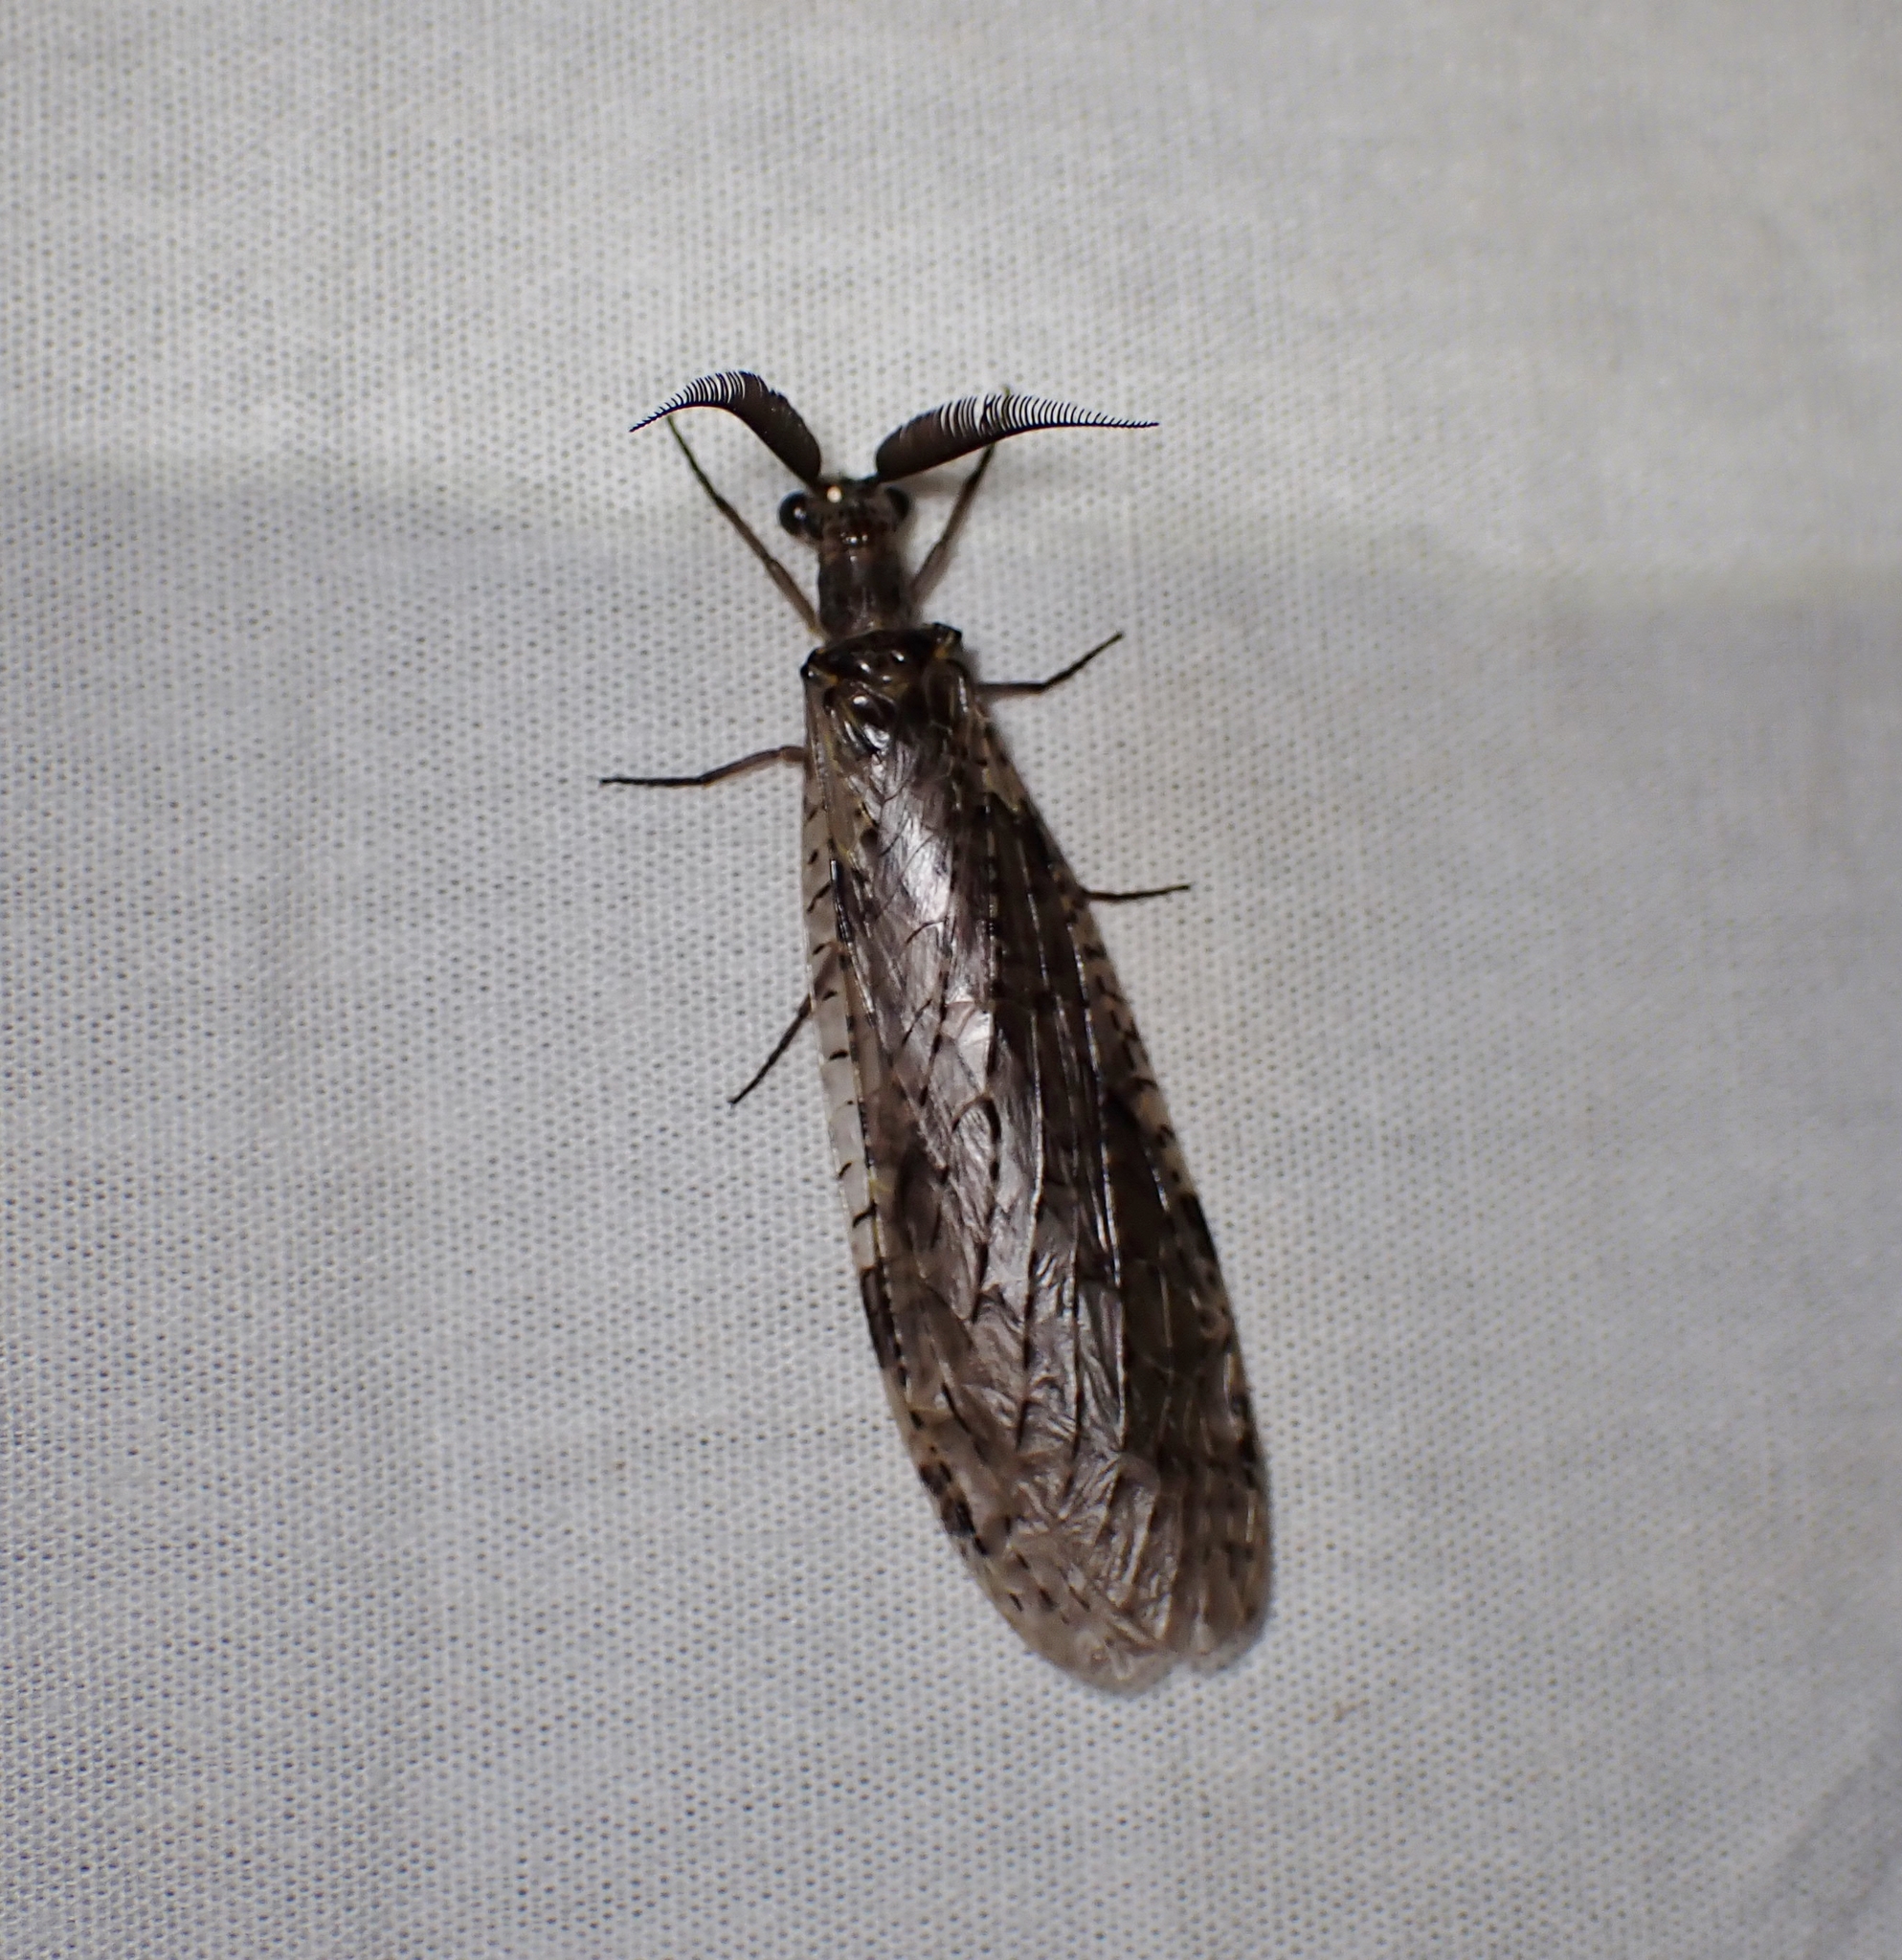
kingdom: Animalia
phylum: Arthropoda
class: Insecta
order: Megaloptera
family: Corydalidae
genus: Chauliodes
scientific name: Chauliodes rastricornis
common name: Spring fishfly
